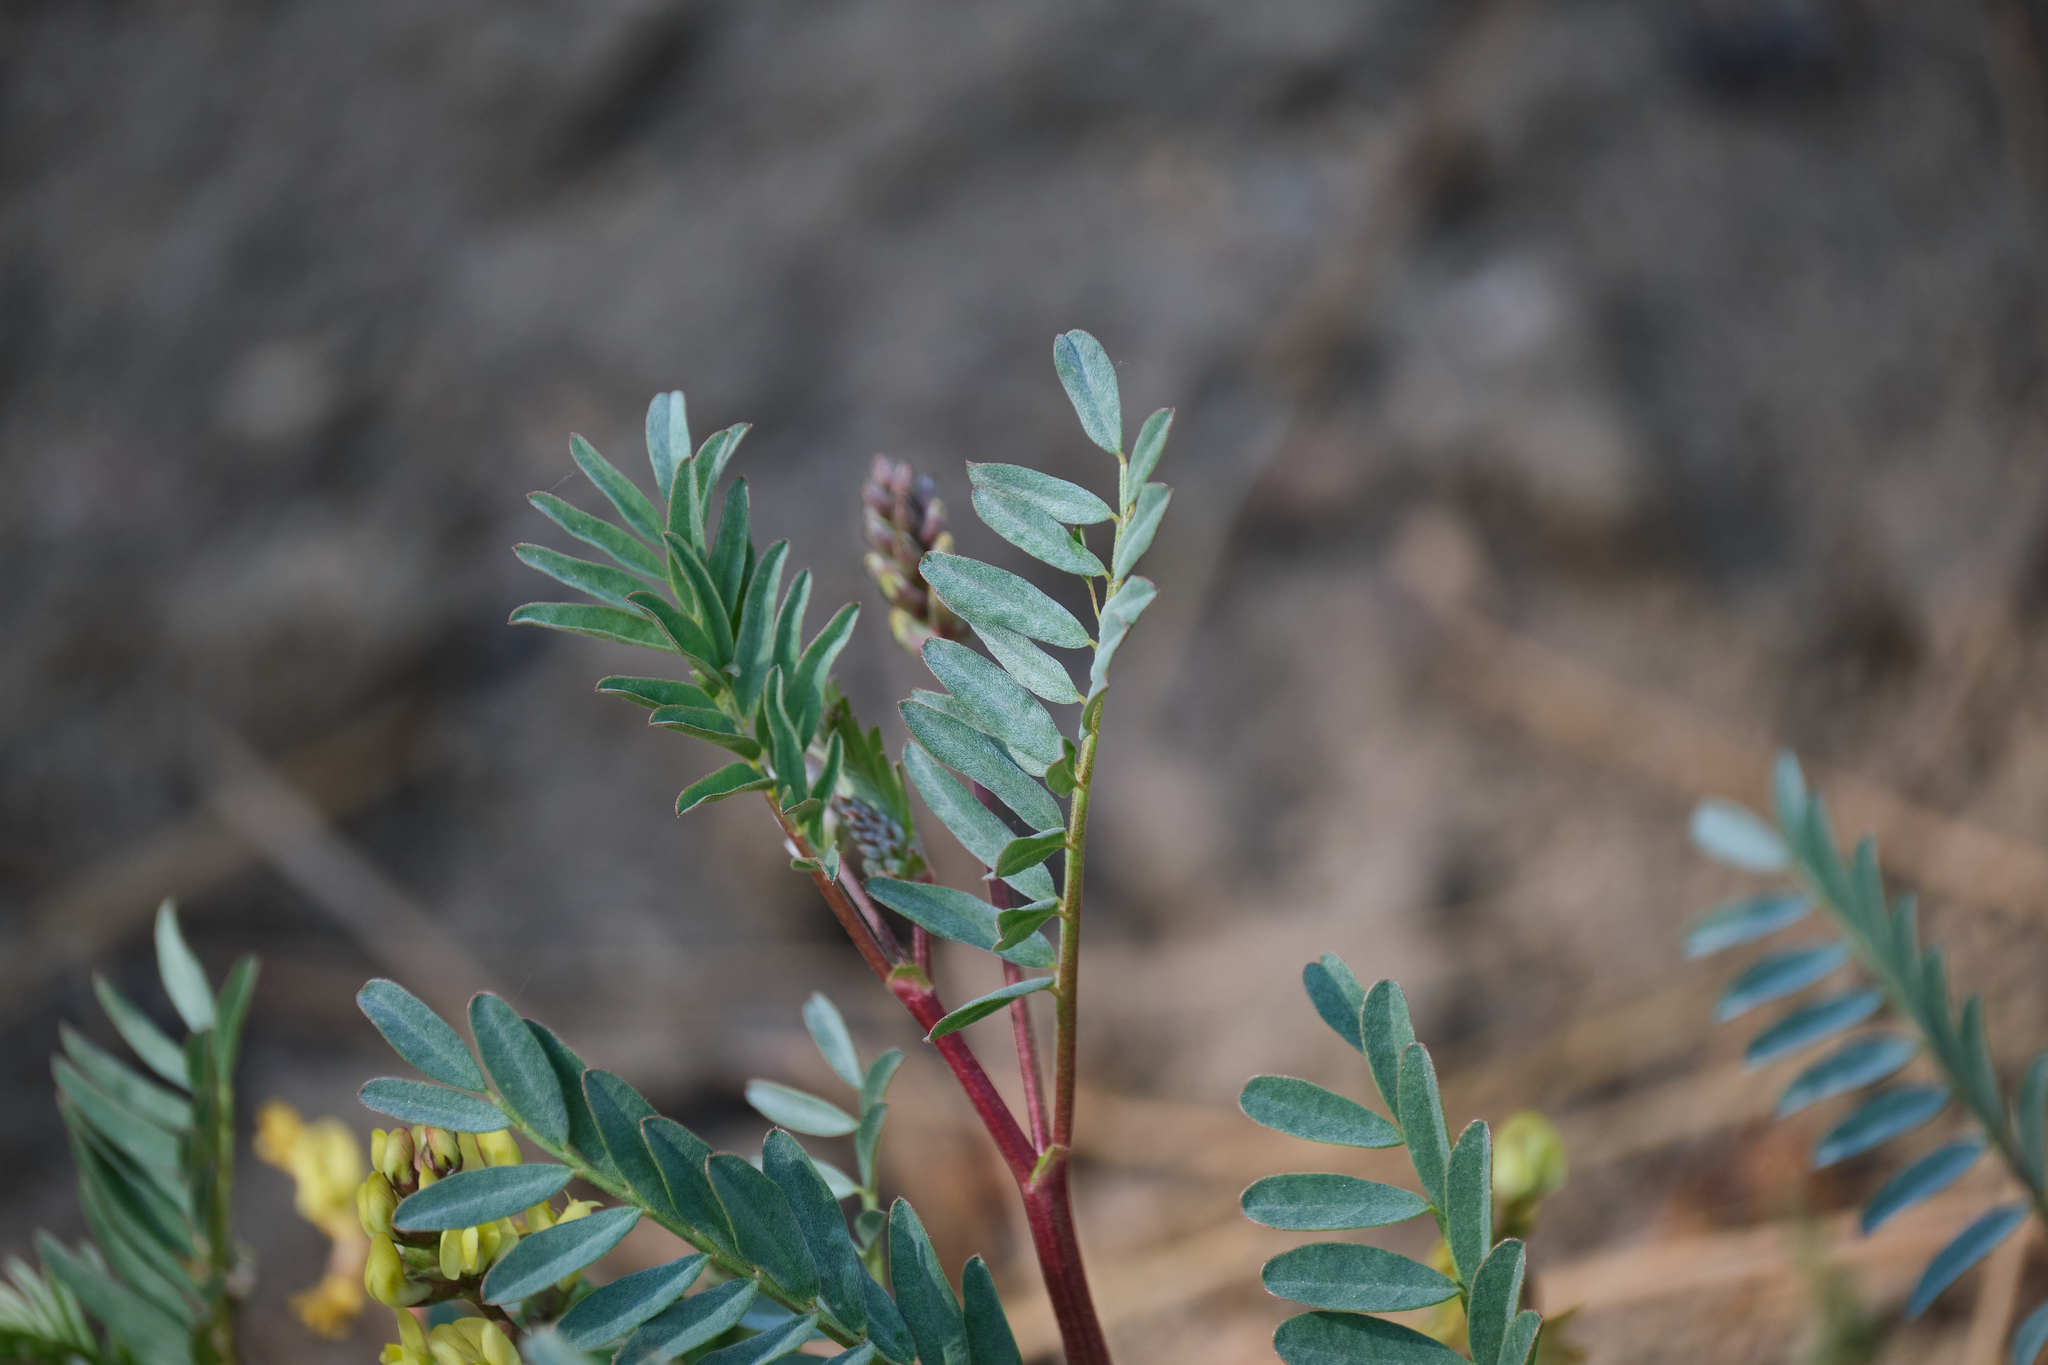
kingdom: Plantae
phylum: Tracheophyta
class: Magnoliopsida
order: Fabales
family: Fabaceae
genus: Astragalus
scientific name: Astragalus douglasii
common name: Jacumba milkvetch
